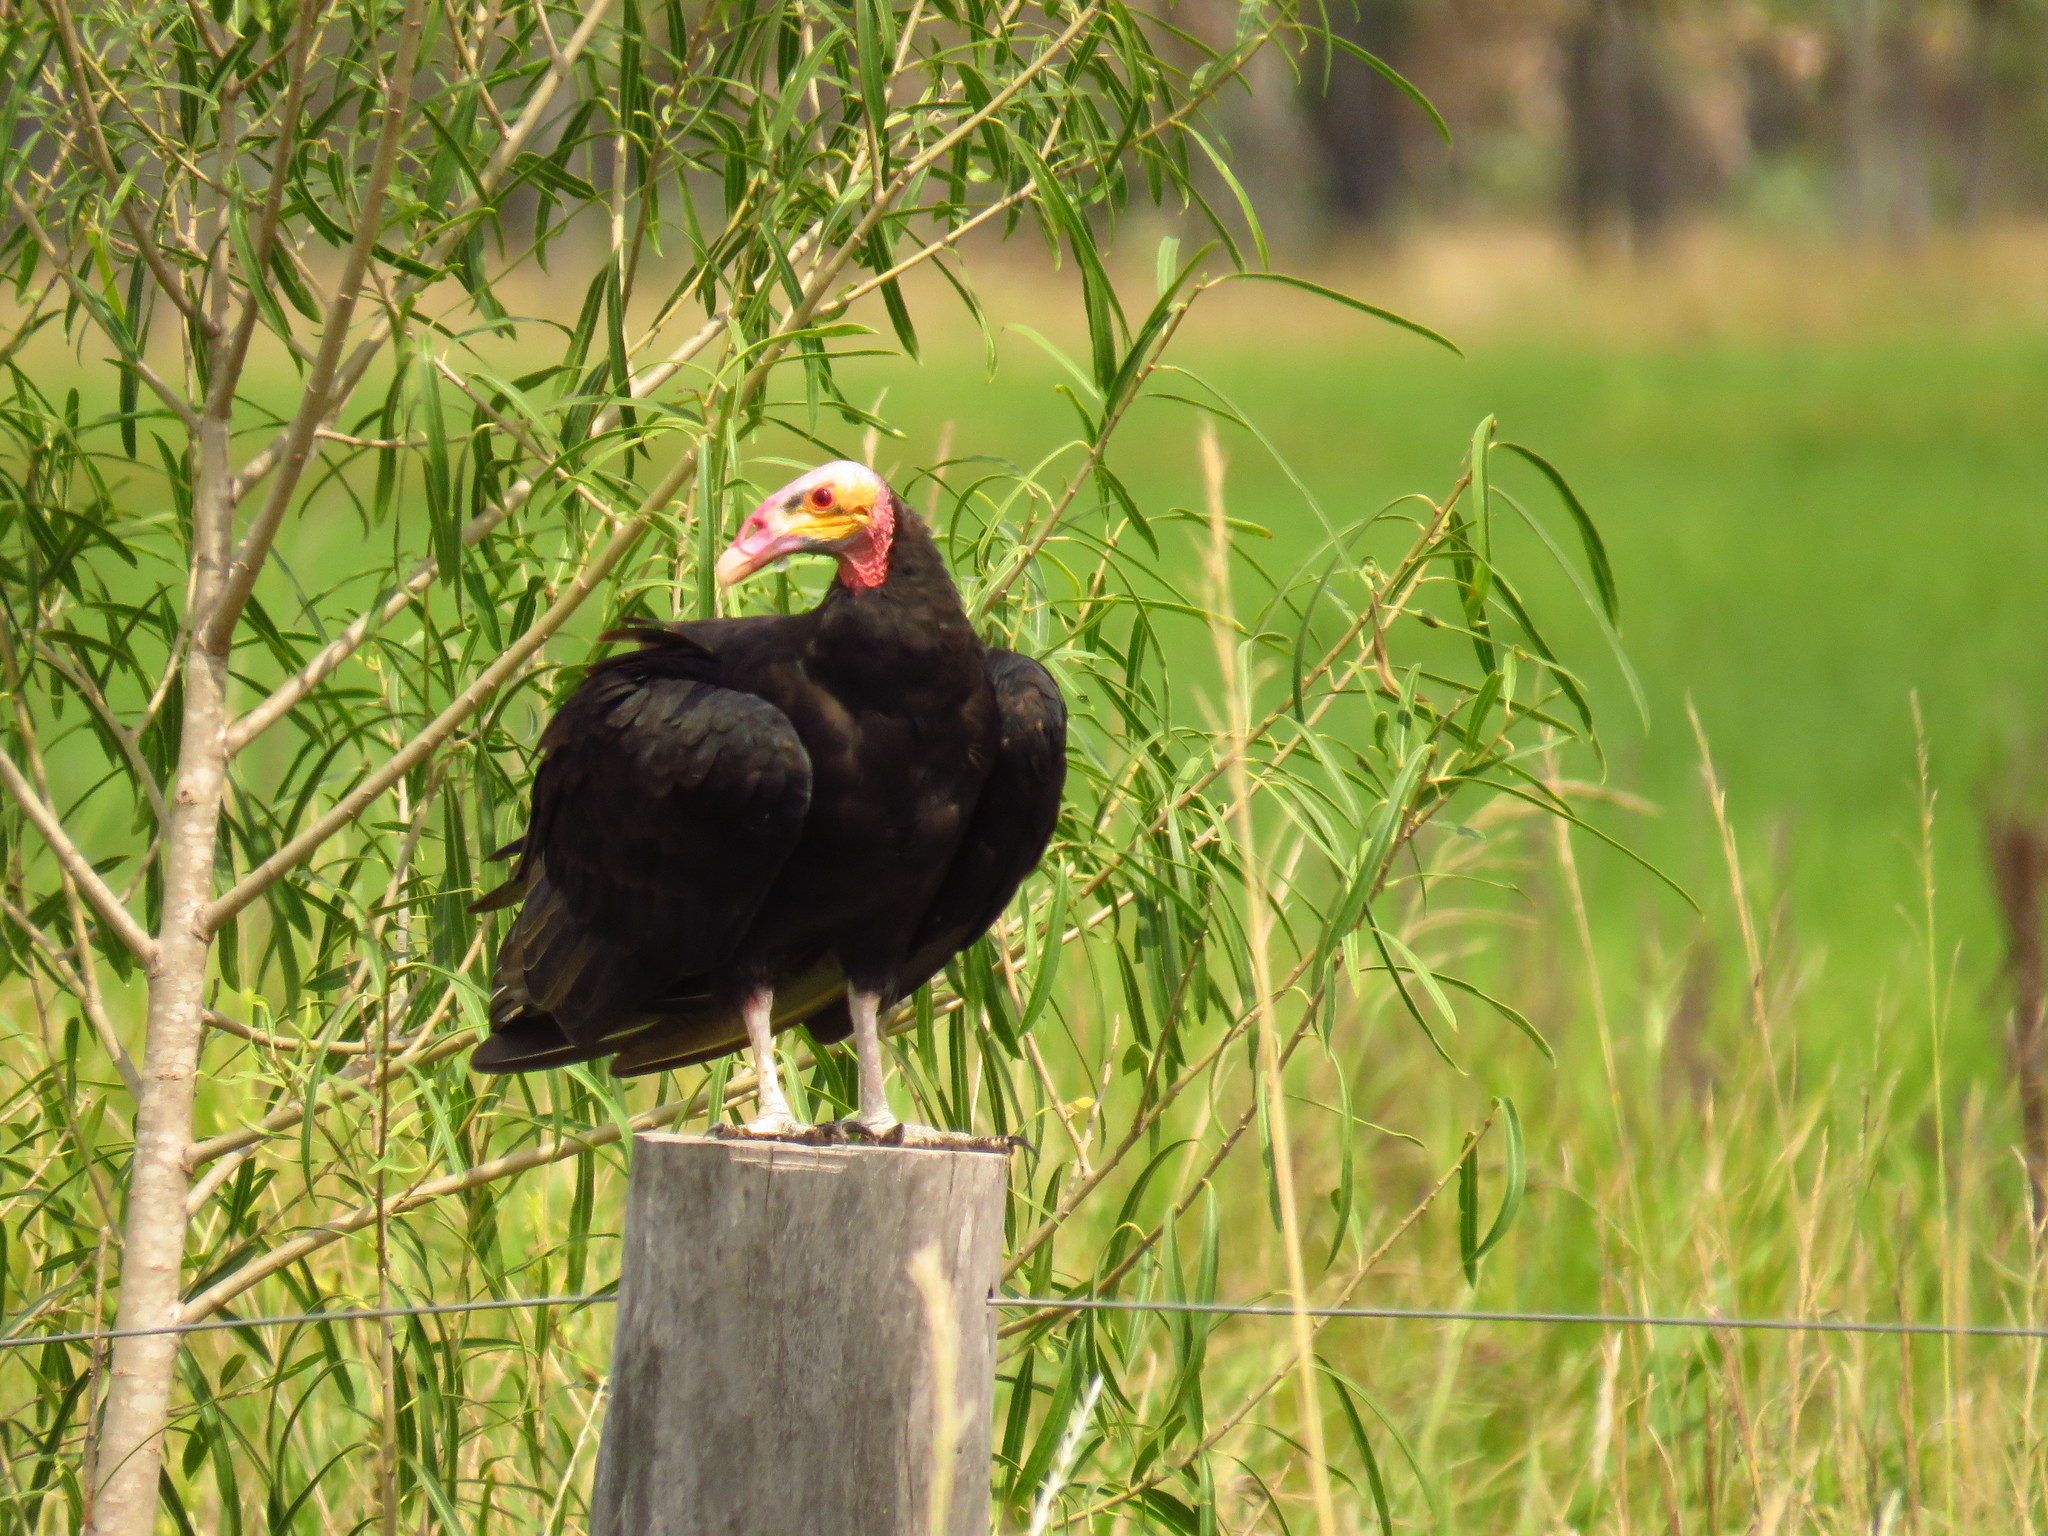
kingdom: Animalia
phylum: Chordata
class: Aves
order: Accipitriformes
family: Cathartidae
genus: Cathartes
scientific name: Cathartes burrovianus
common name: Lesser yellow-headed vulture
